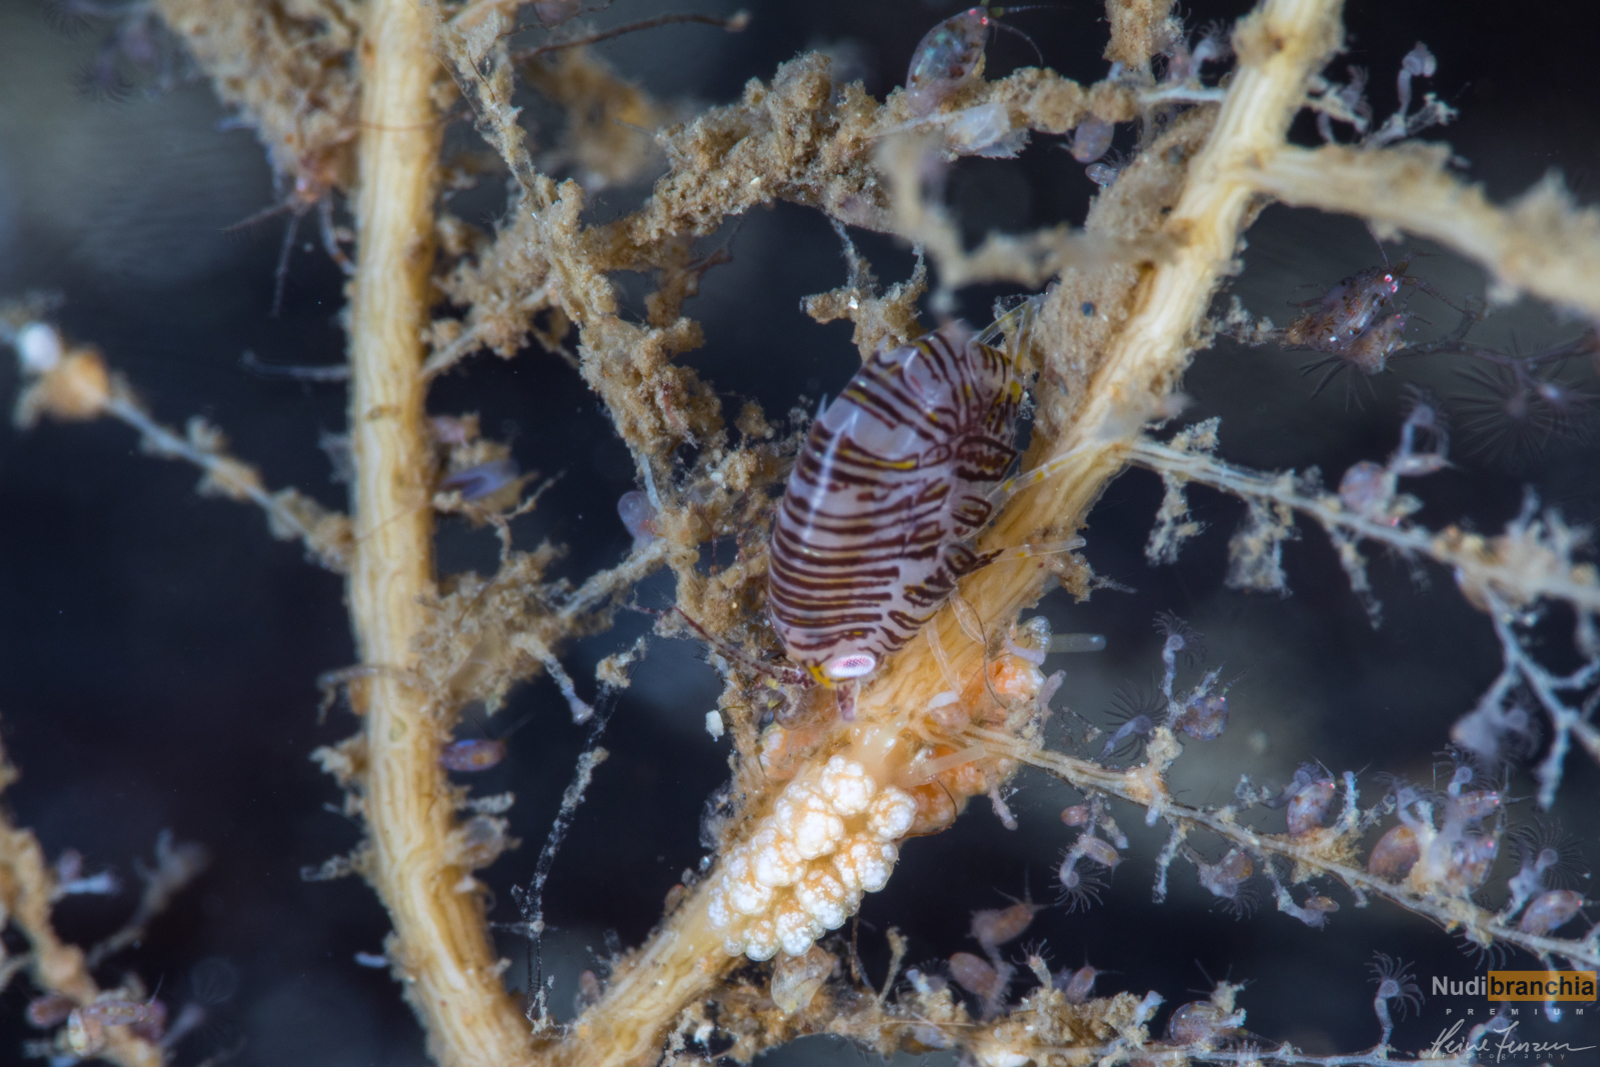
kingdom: Animalia
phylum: Mollusca
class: Gastropoda
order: Nudibranchia
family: Dotidae
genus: Doto
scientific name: Doto fragilis
